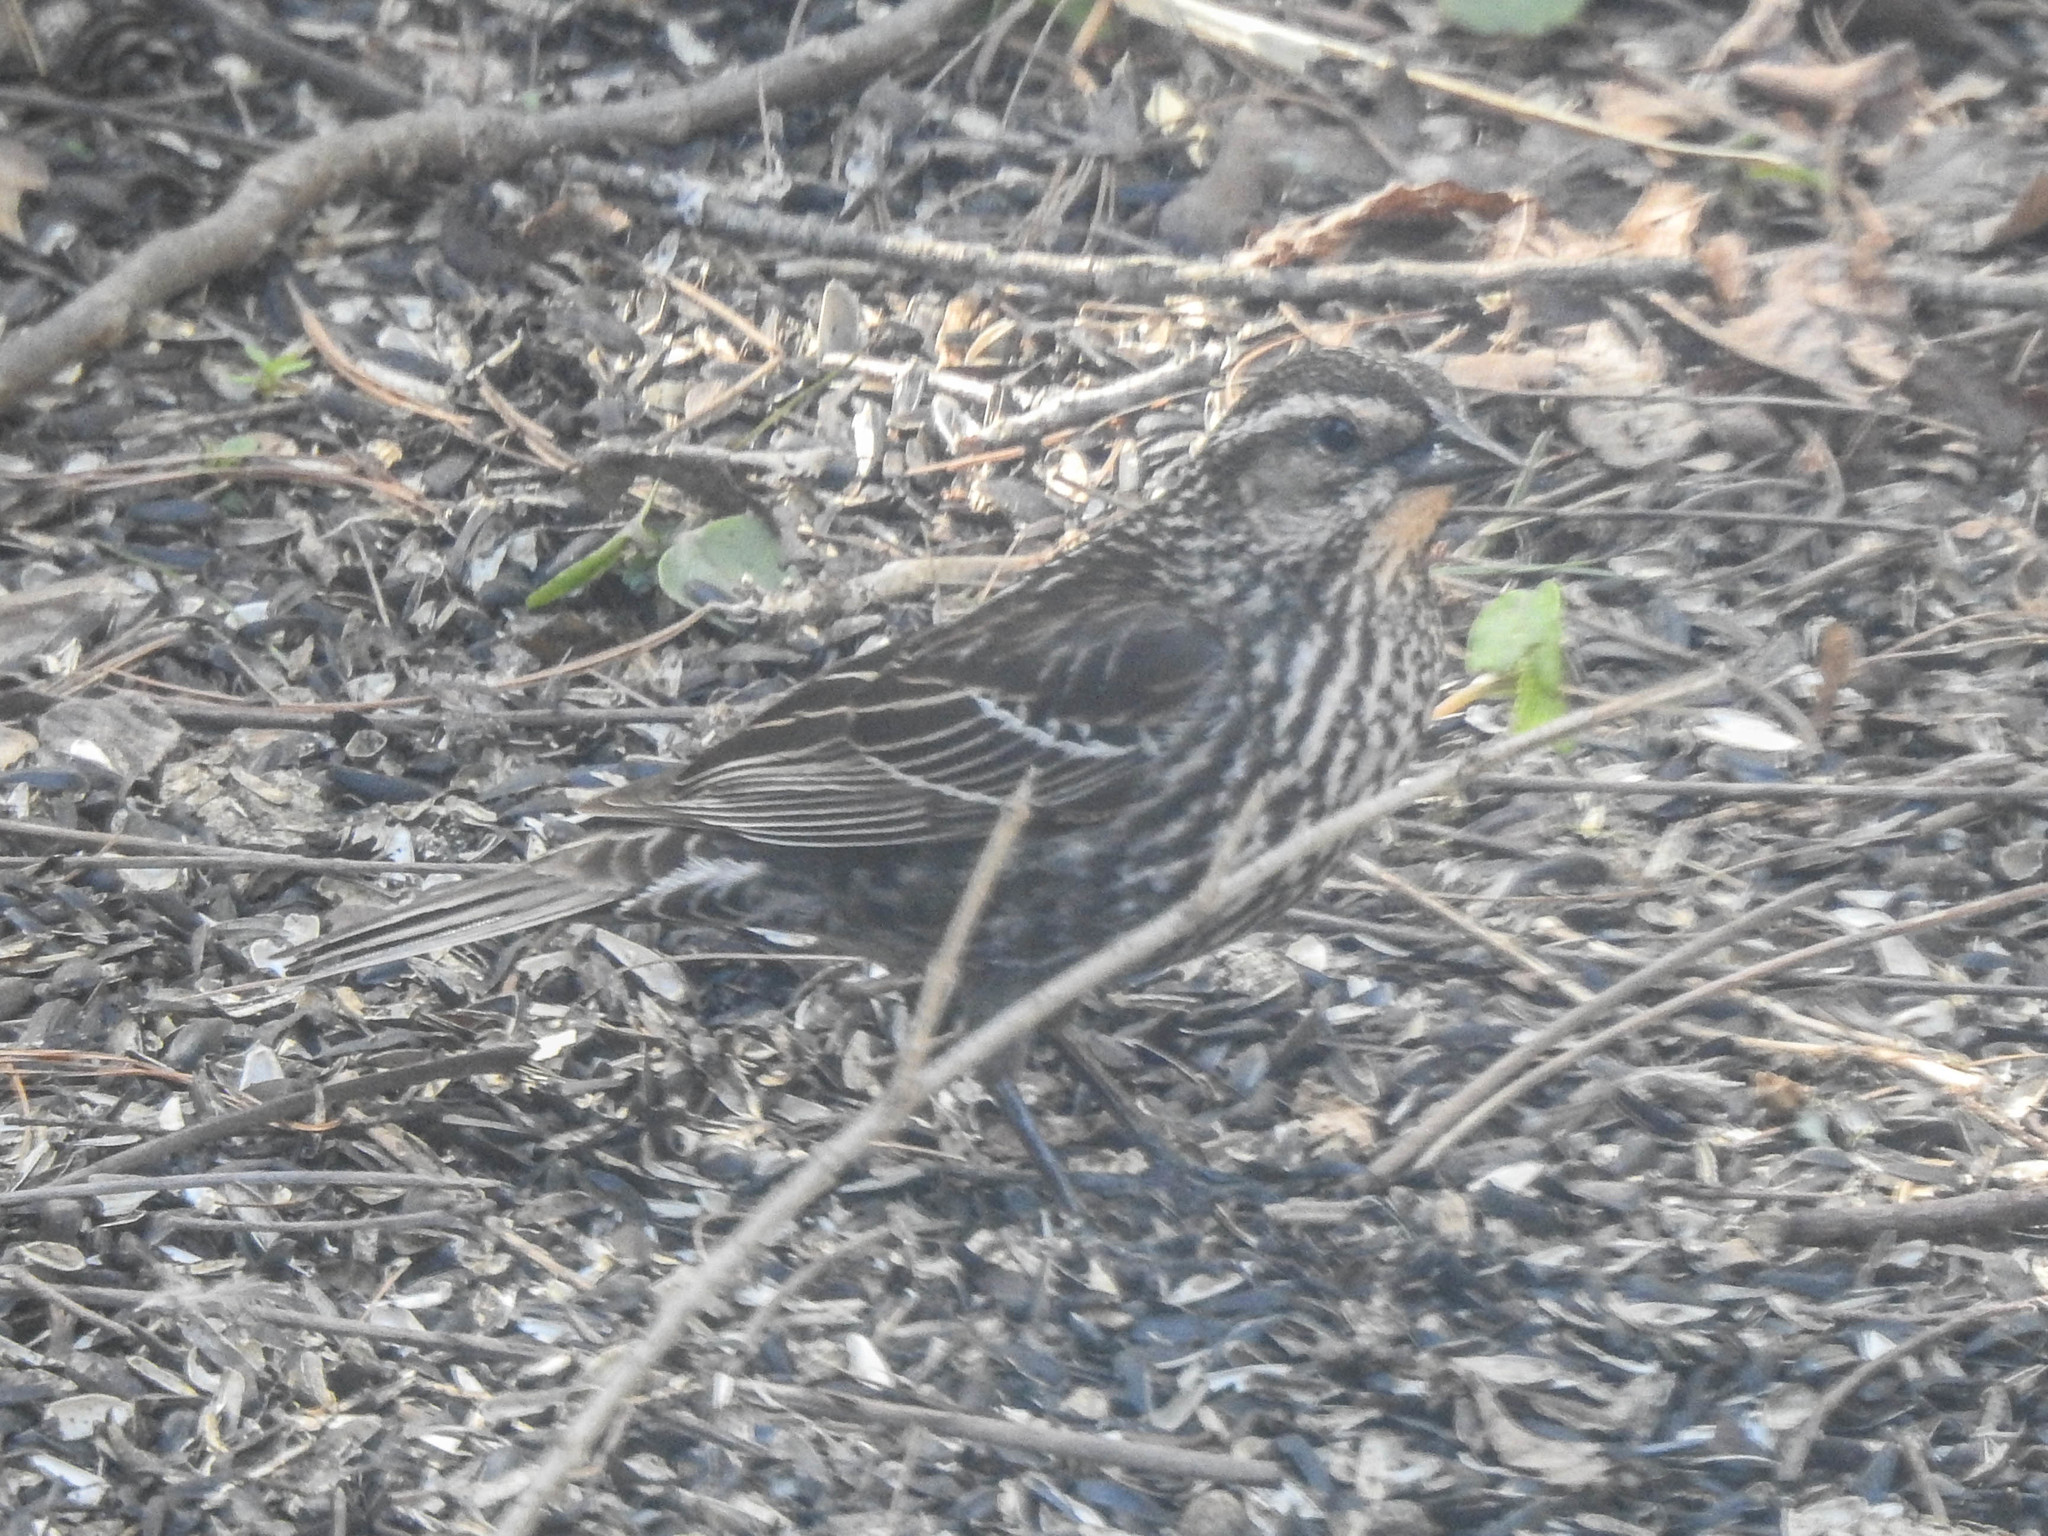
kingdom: Animalia
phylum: Chordata
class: Aves
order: Passeriformes
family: Icteridae
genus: Agelaius
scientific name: Agelaius phoeniceus
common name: Red-winged blackbird
